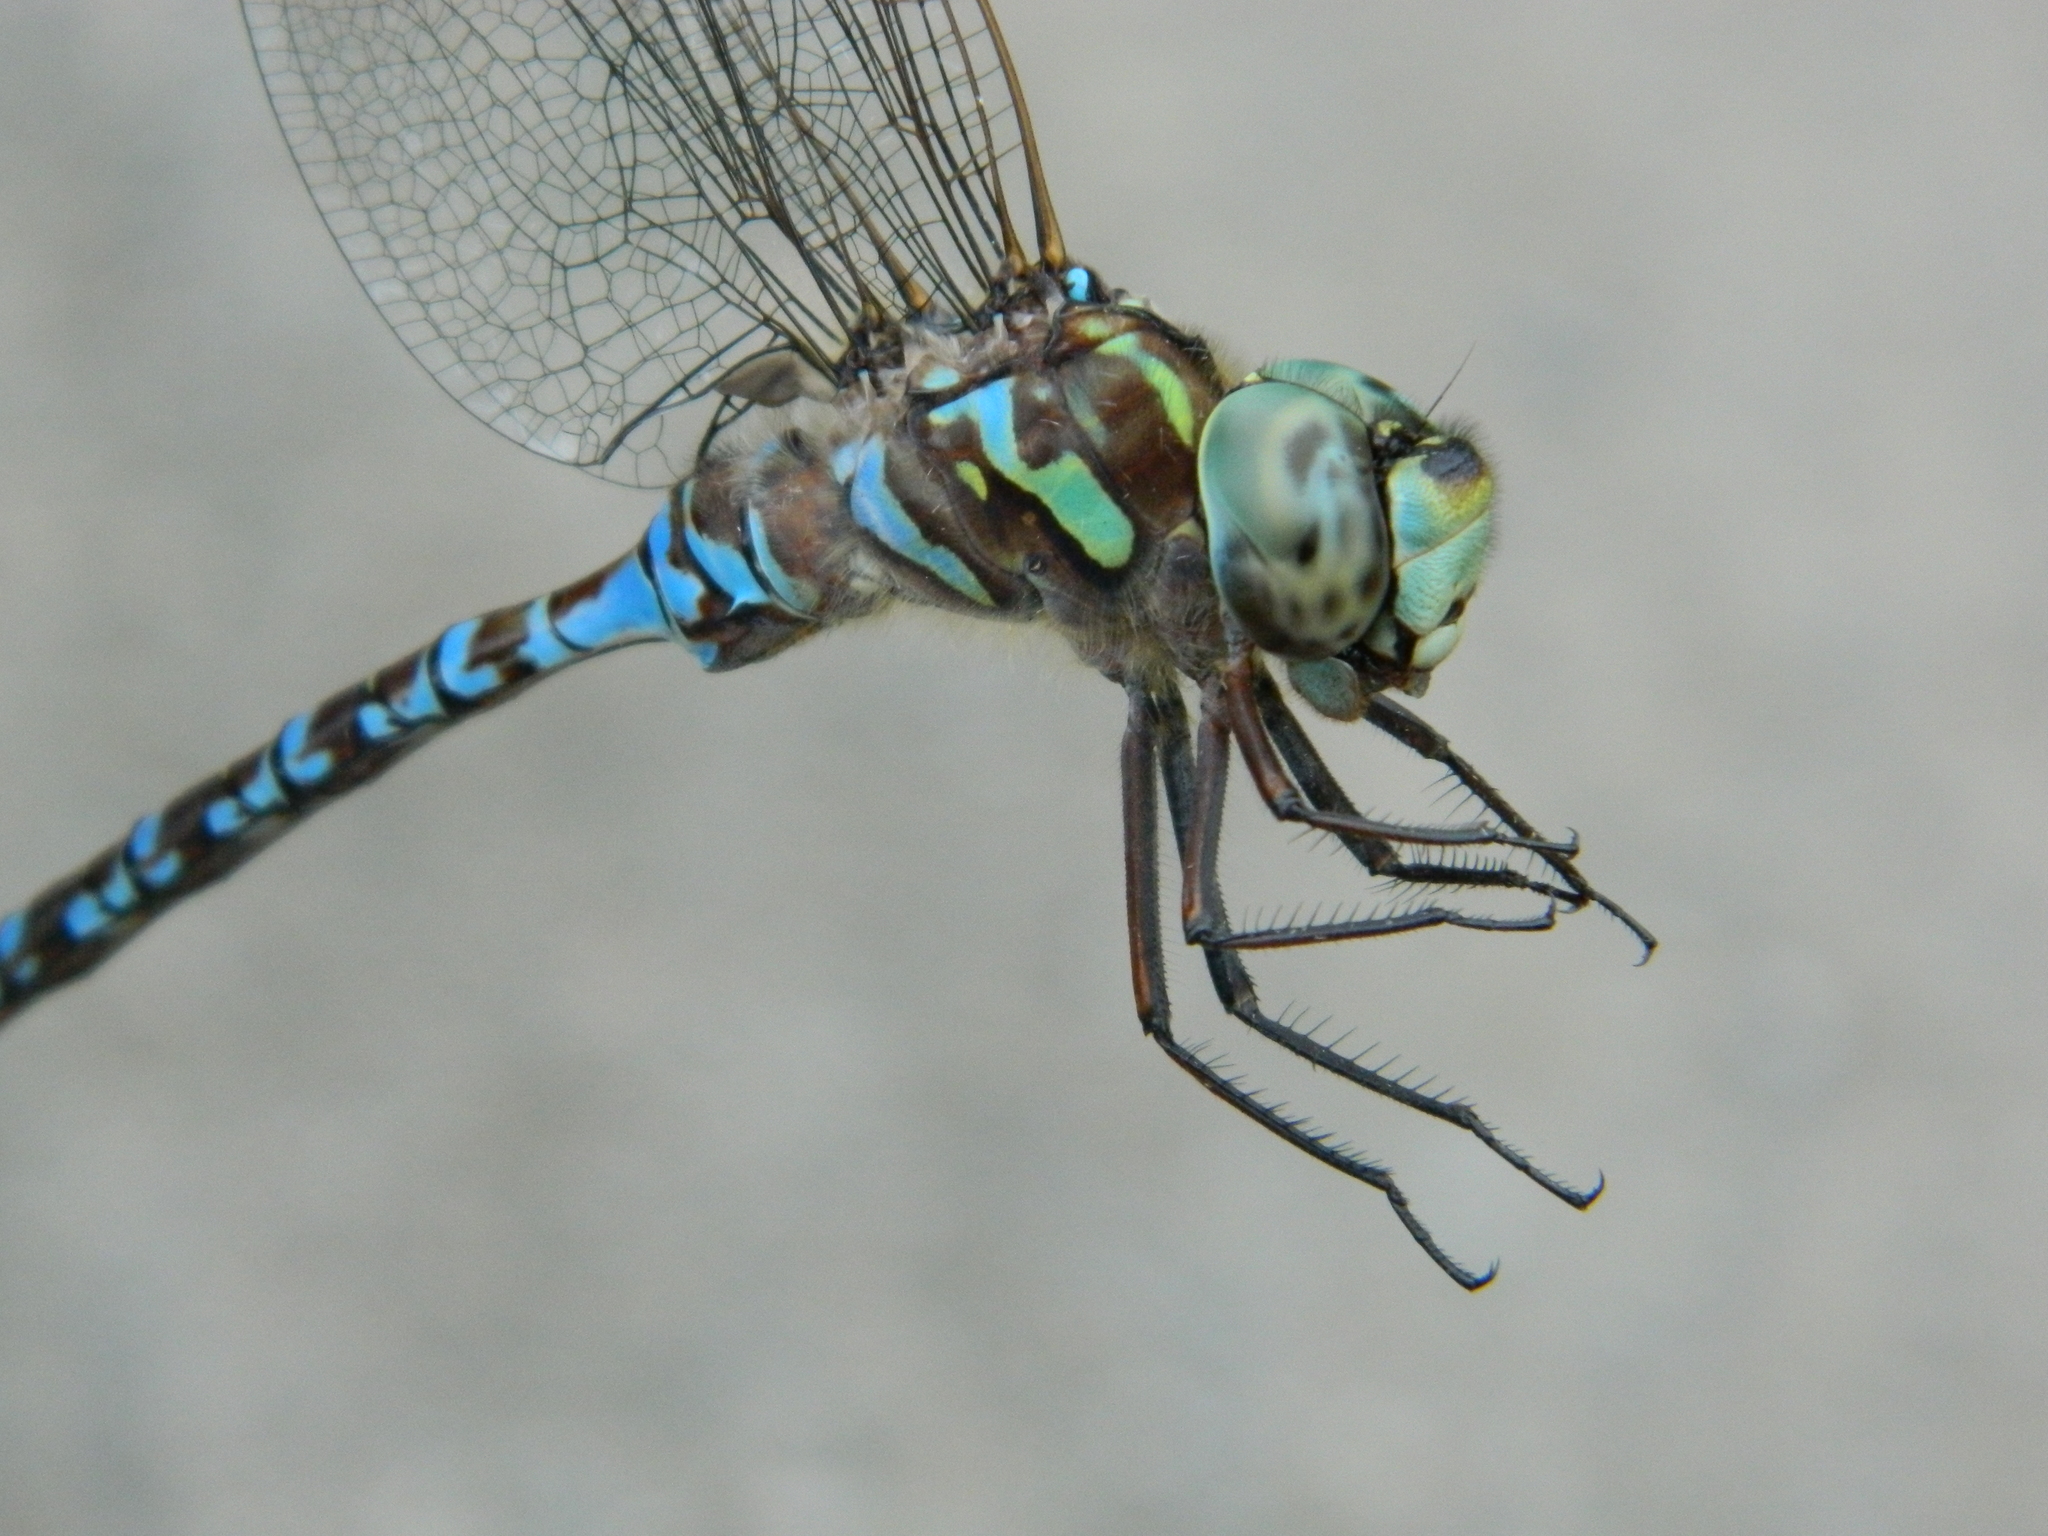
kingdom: Animalia
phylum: Arthropoda
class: Insecta
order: Odonata
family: Aeshnidae
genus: Aeshna
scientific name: Aeshna canadensis
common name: Canada darner
